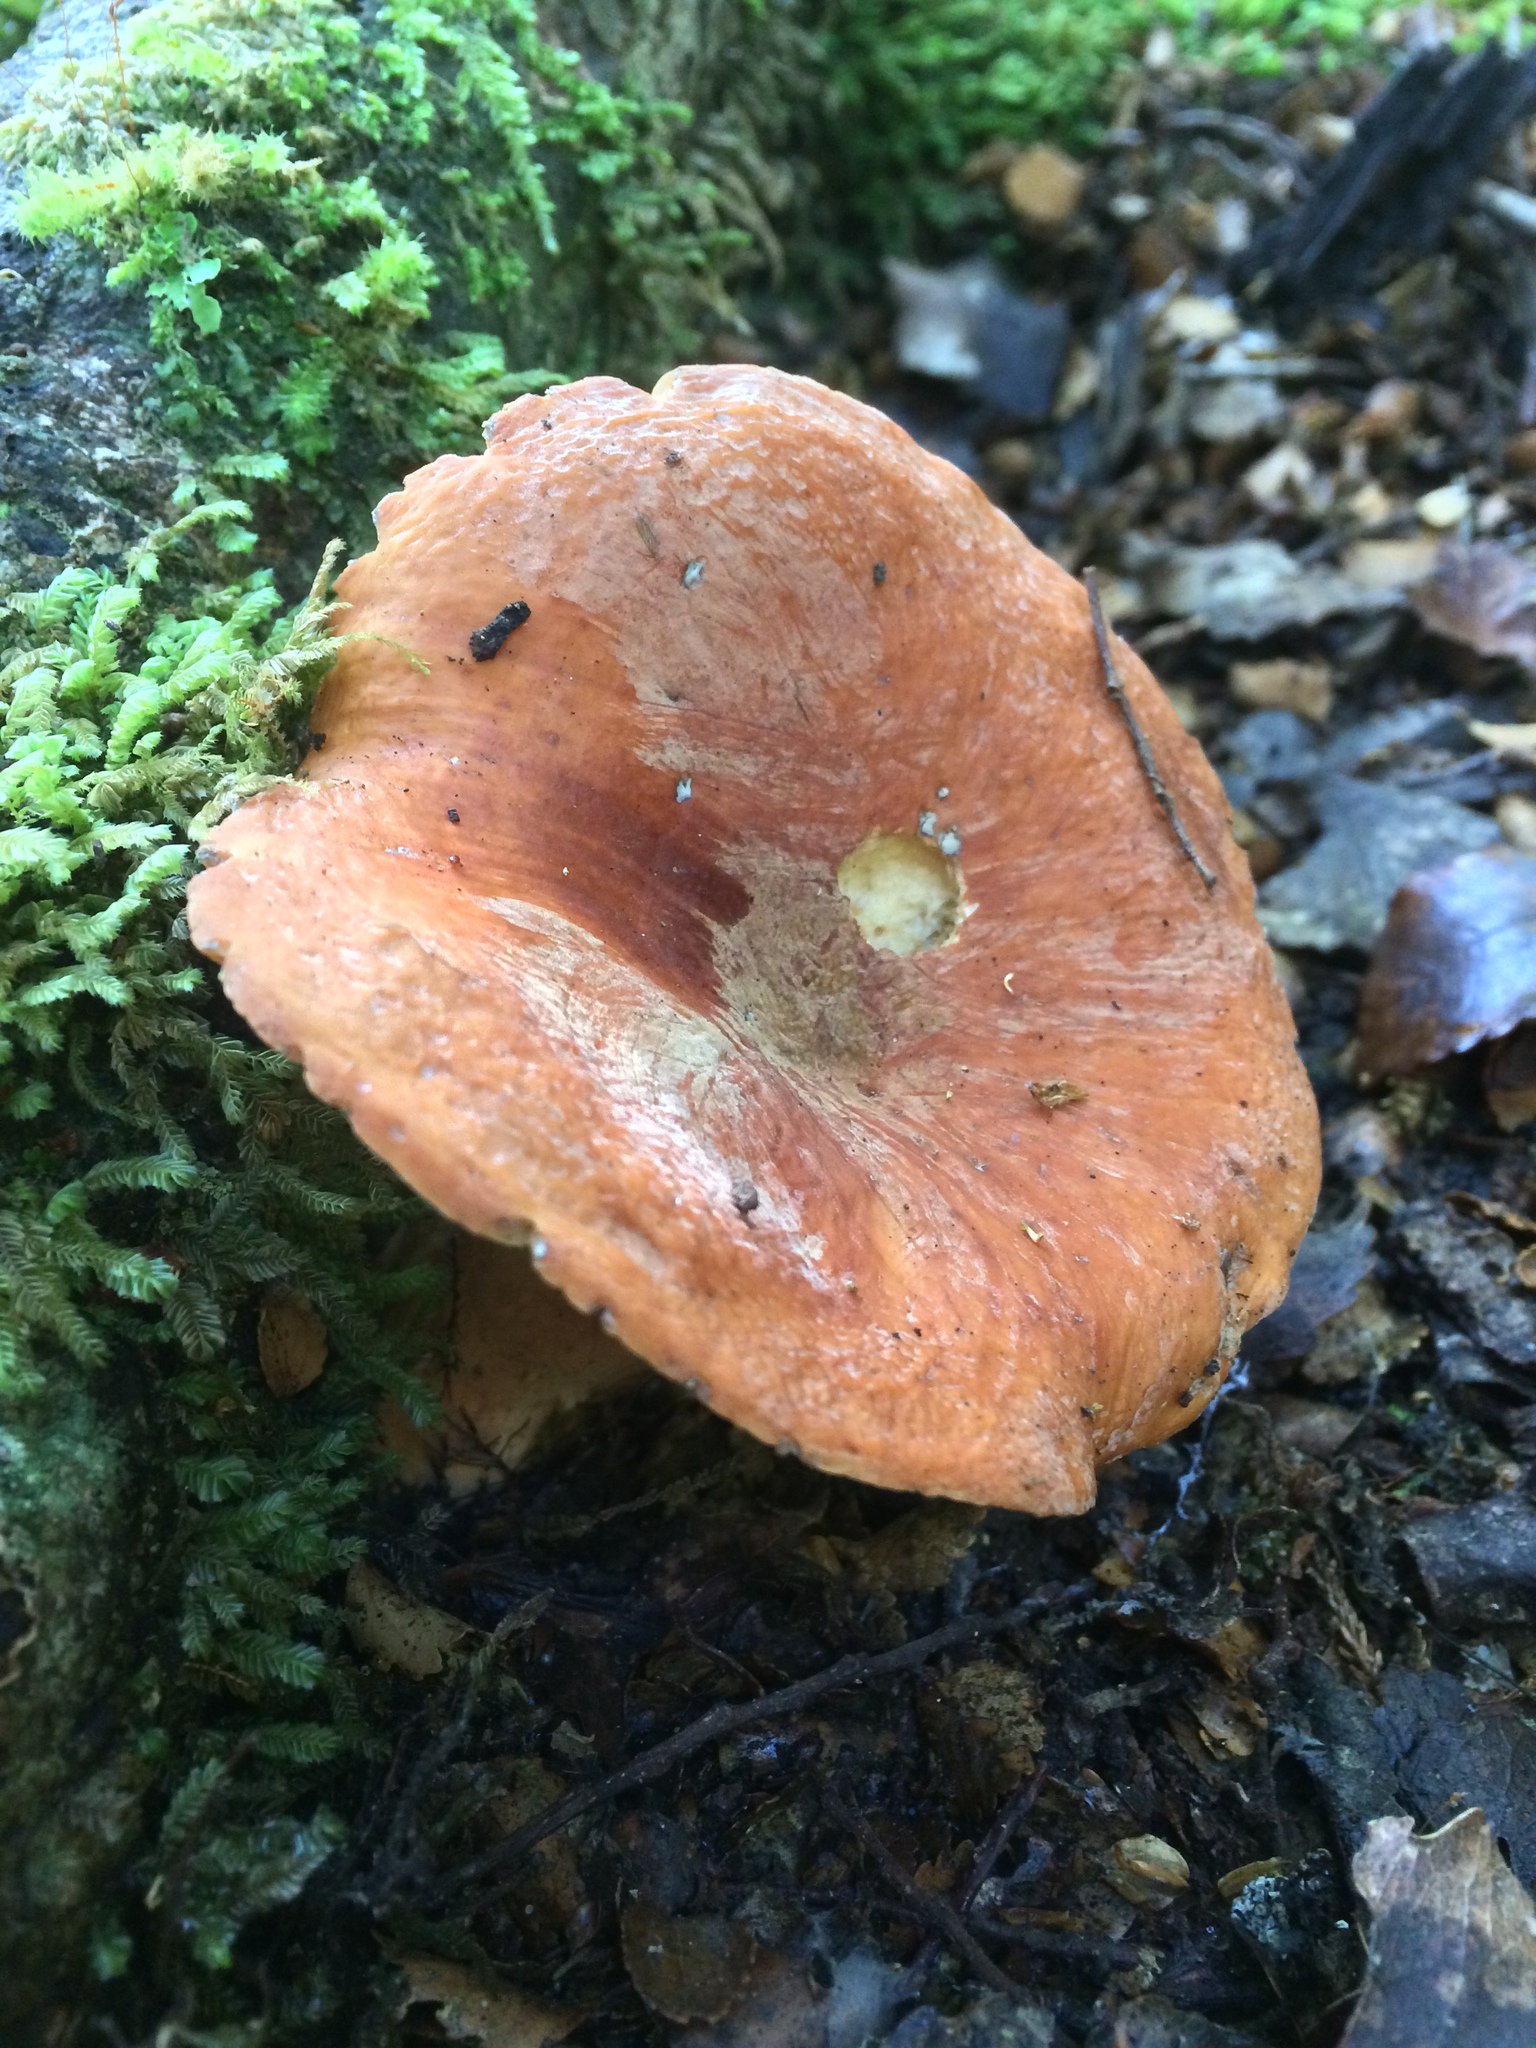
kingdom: Fungi
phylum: Basidiomycota
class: Agaricomycetes
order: Russulales
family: Russulaceae
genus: Lactifluus
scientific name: Lactifluus aurantioruber
